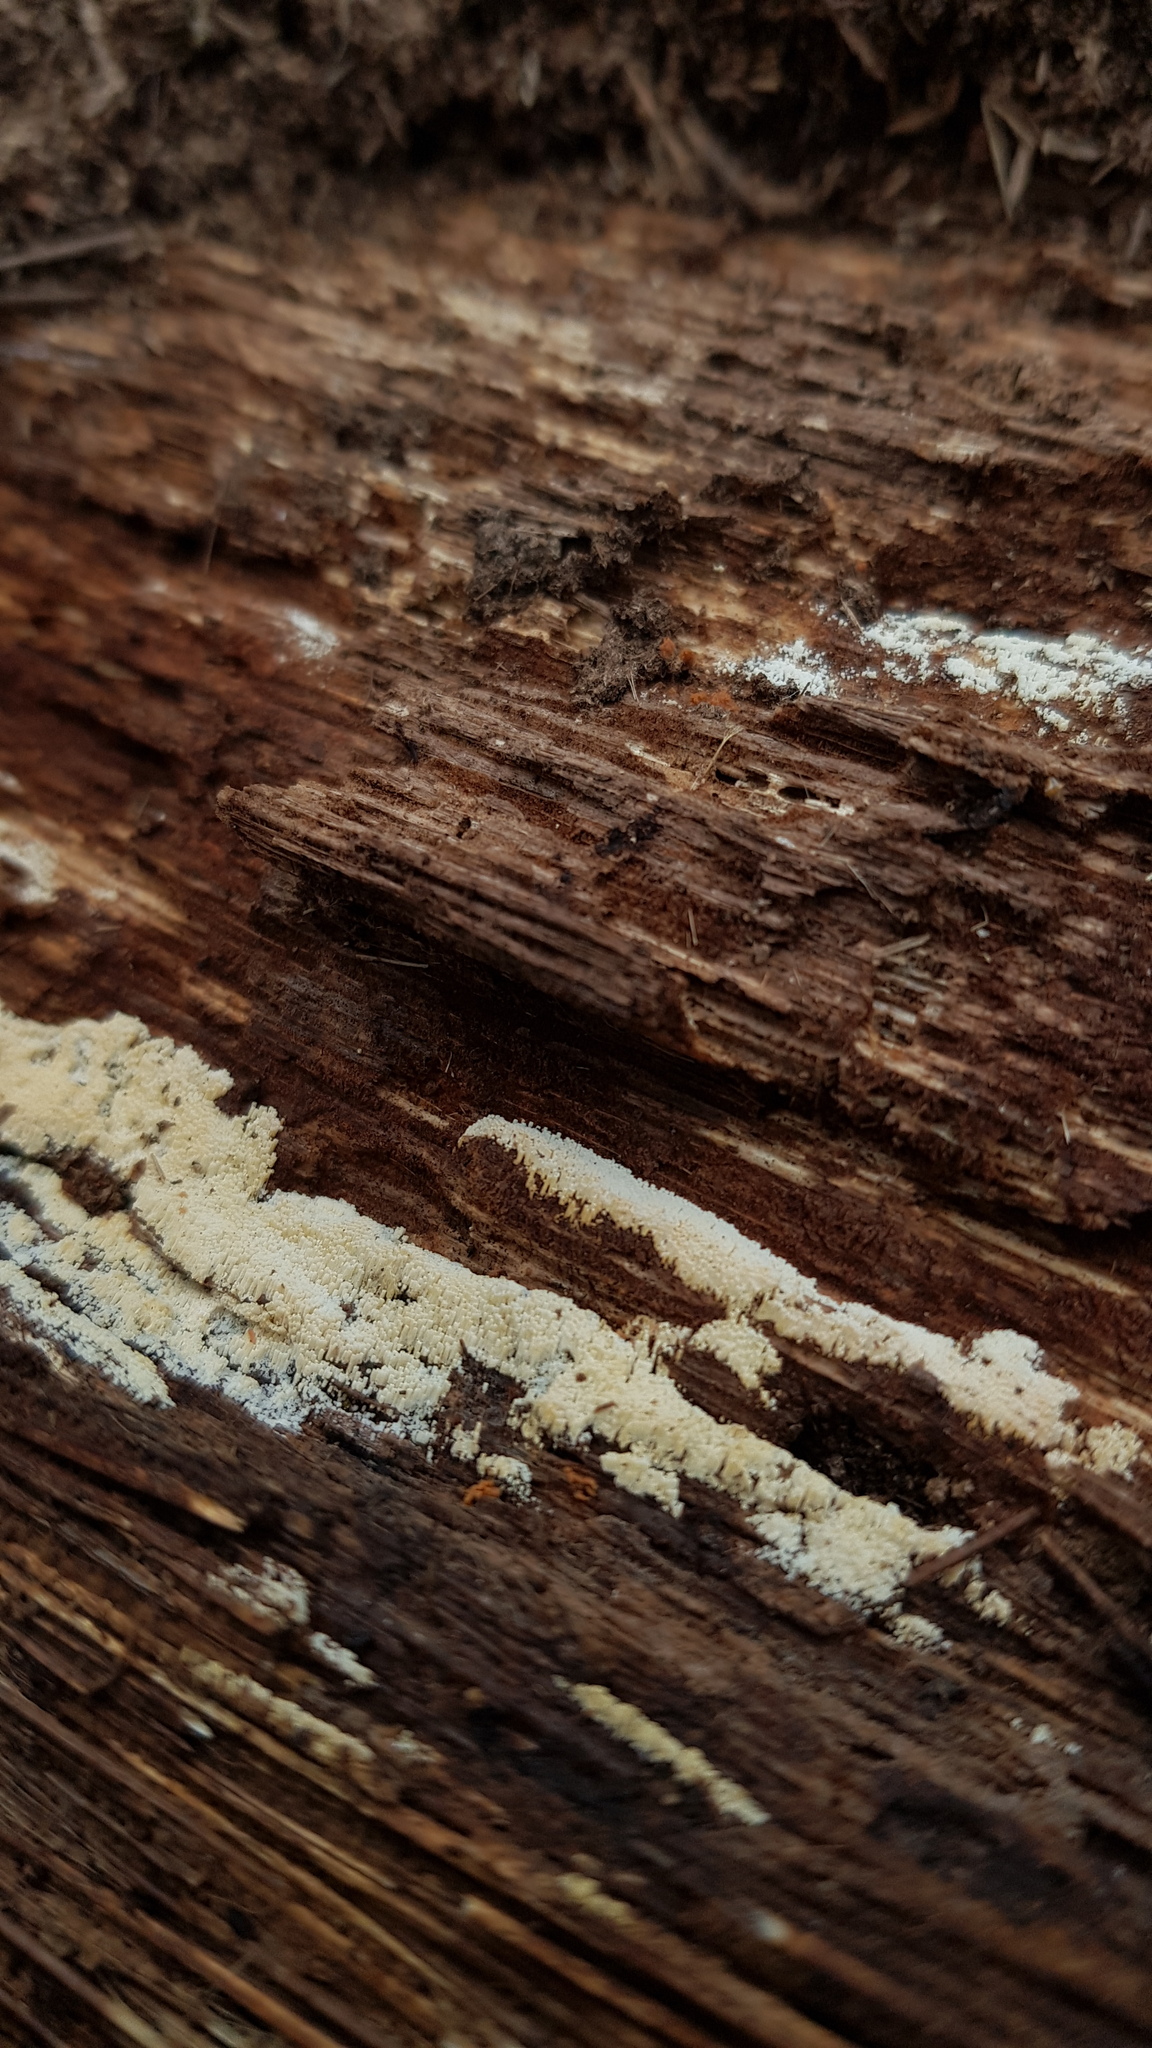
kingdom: Fungi
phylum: Basidiomycota
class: Agaricomycetes
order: Agaricales
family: Marasmiaceae
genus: Henningsomyces
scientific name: Henningsomyces candidus
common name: White tubelet
